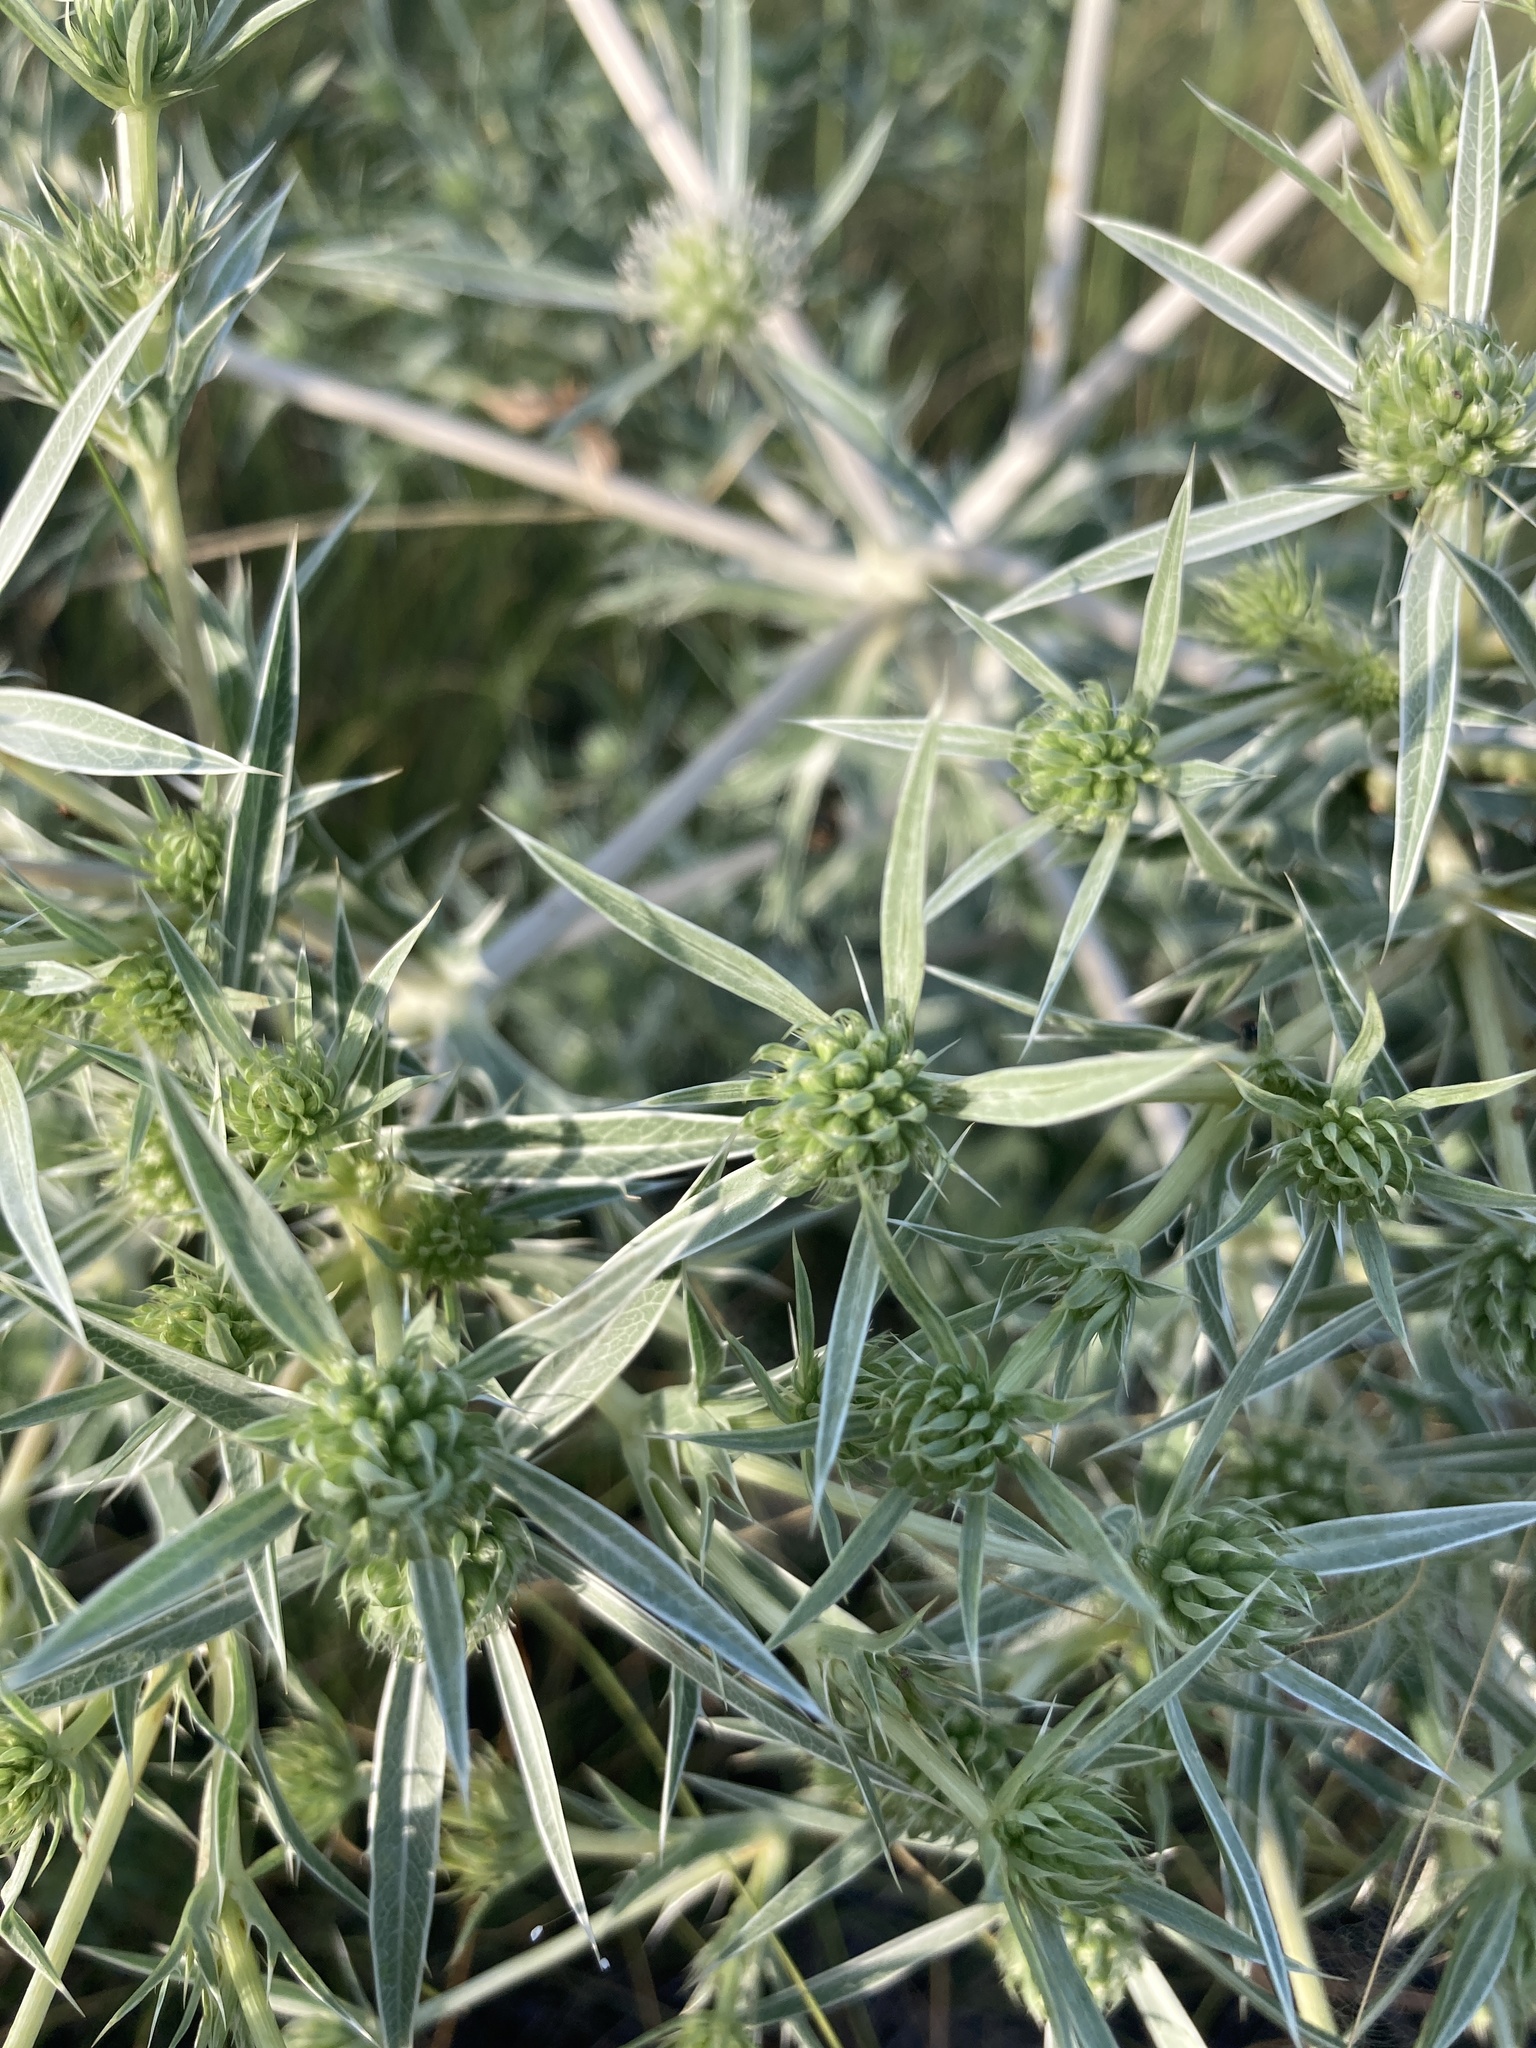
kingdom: Plantae
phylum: Tracheophyta
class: Magnoliopsida
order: Apiales
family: Apiaceae
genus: Eryngium
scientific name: Eryngium campestre
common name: Field eryngo
